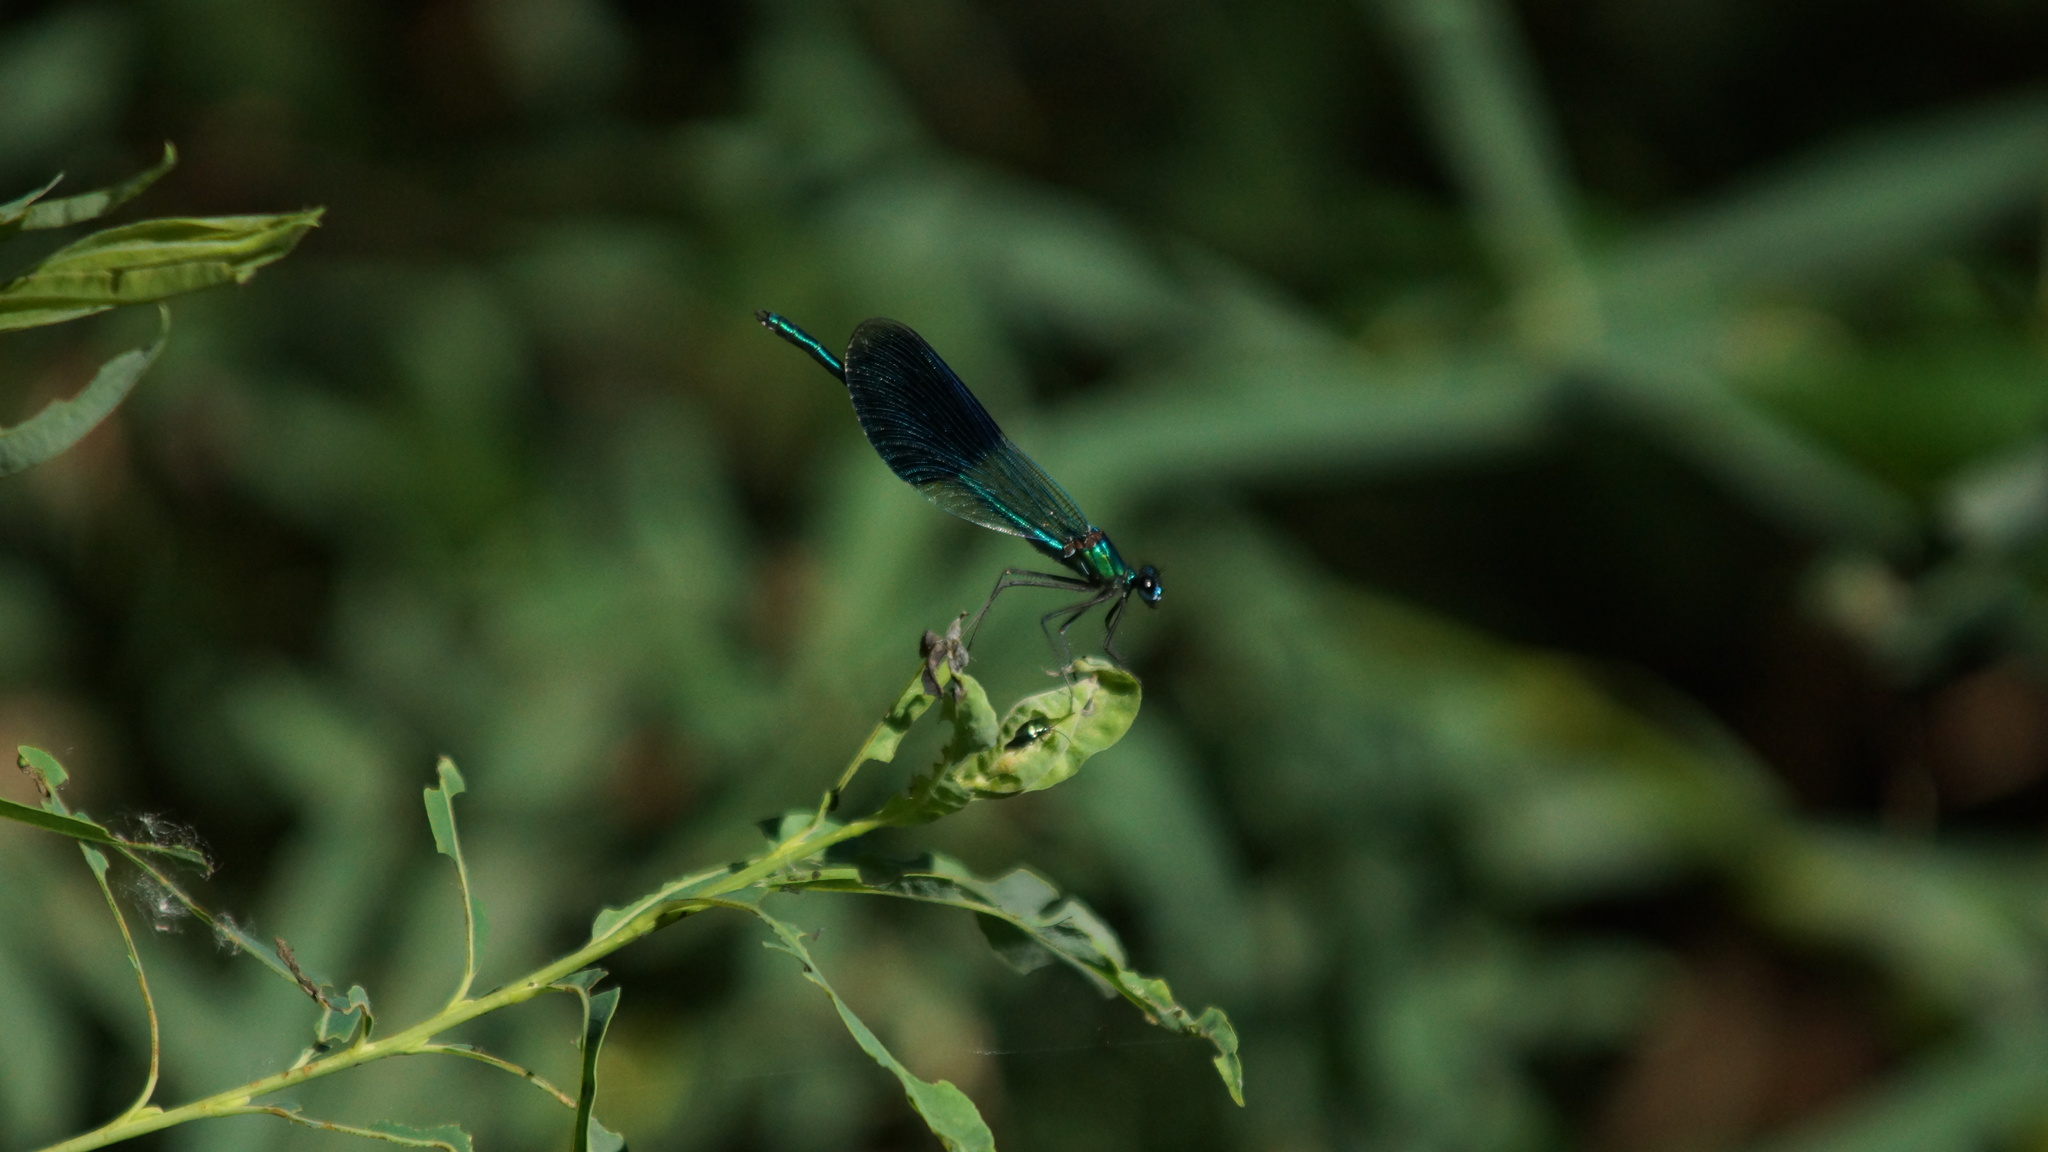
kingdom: Animalia
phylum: Arthropoda
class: Insecta
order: Odonata
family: Calopterygidae
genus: Calopteryx
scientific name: Calopteryx splendens
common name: Banded demoiselle
